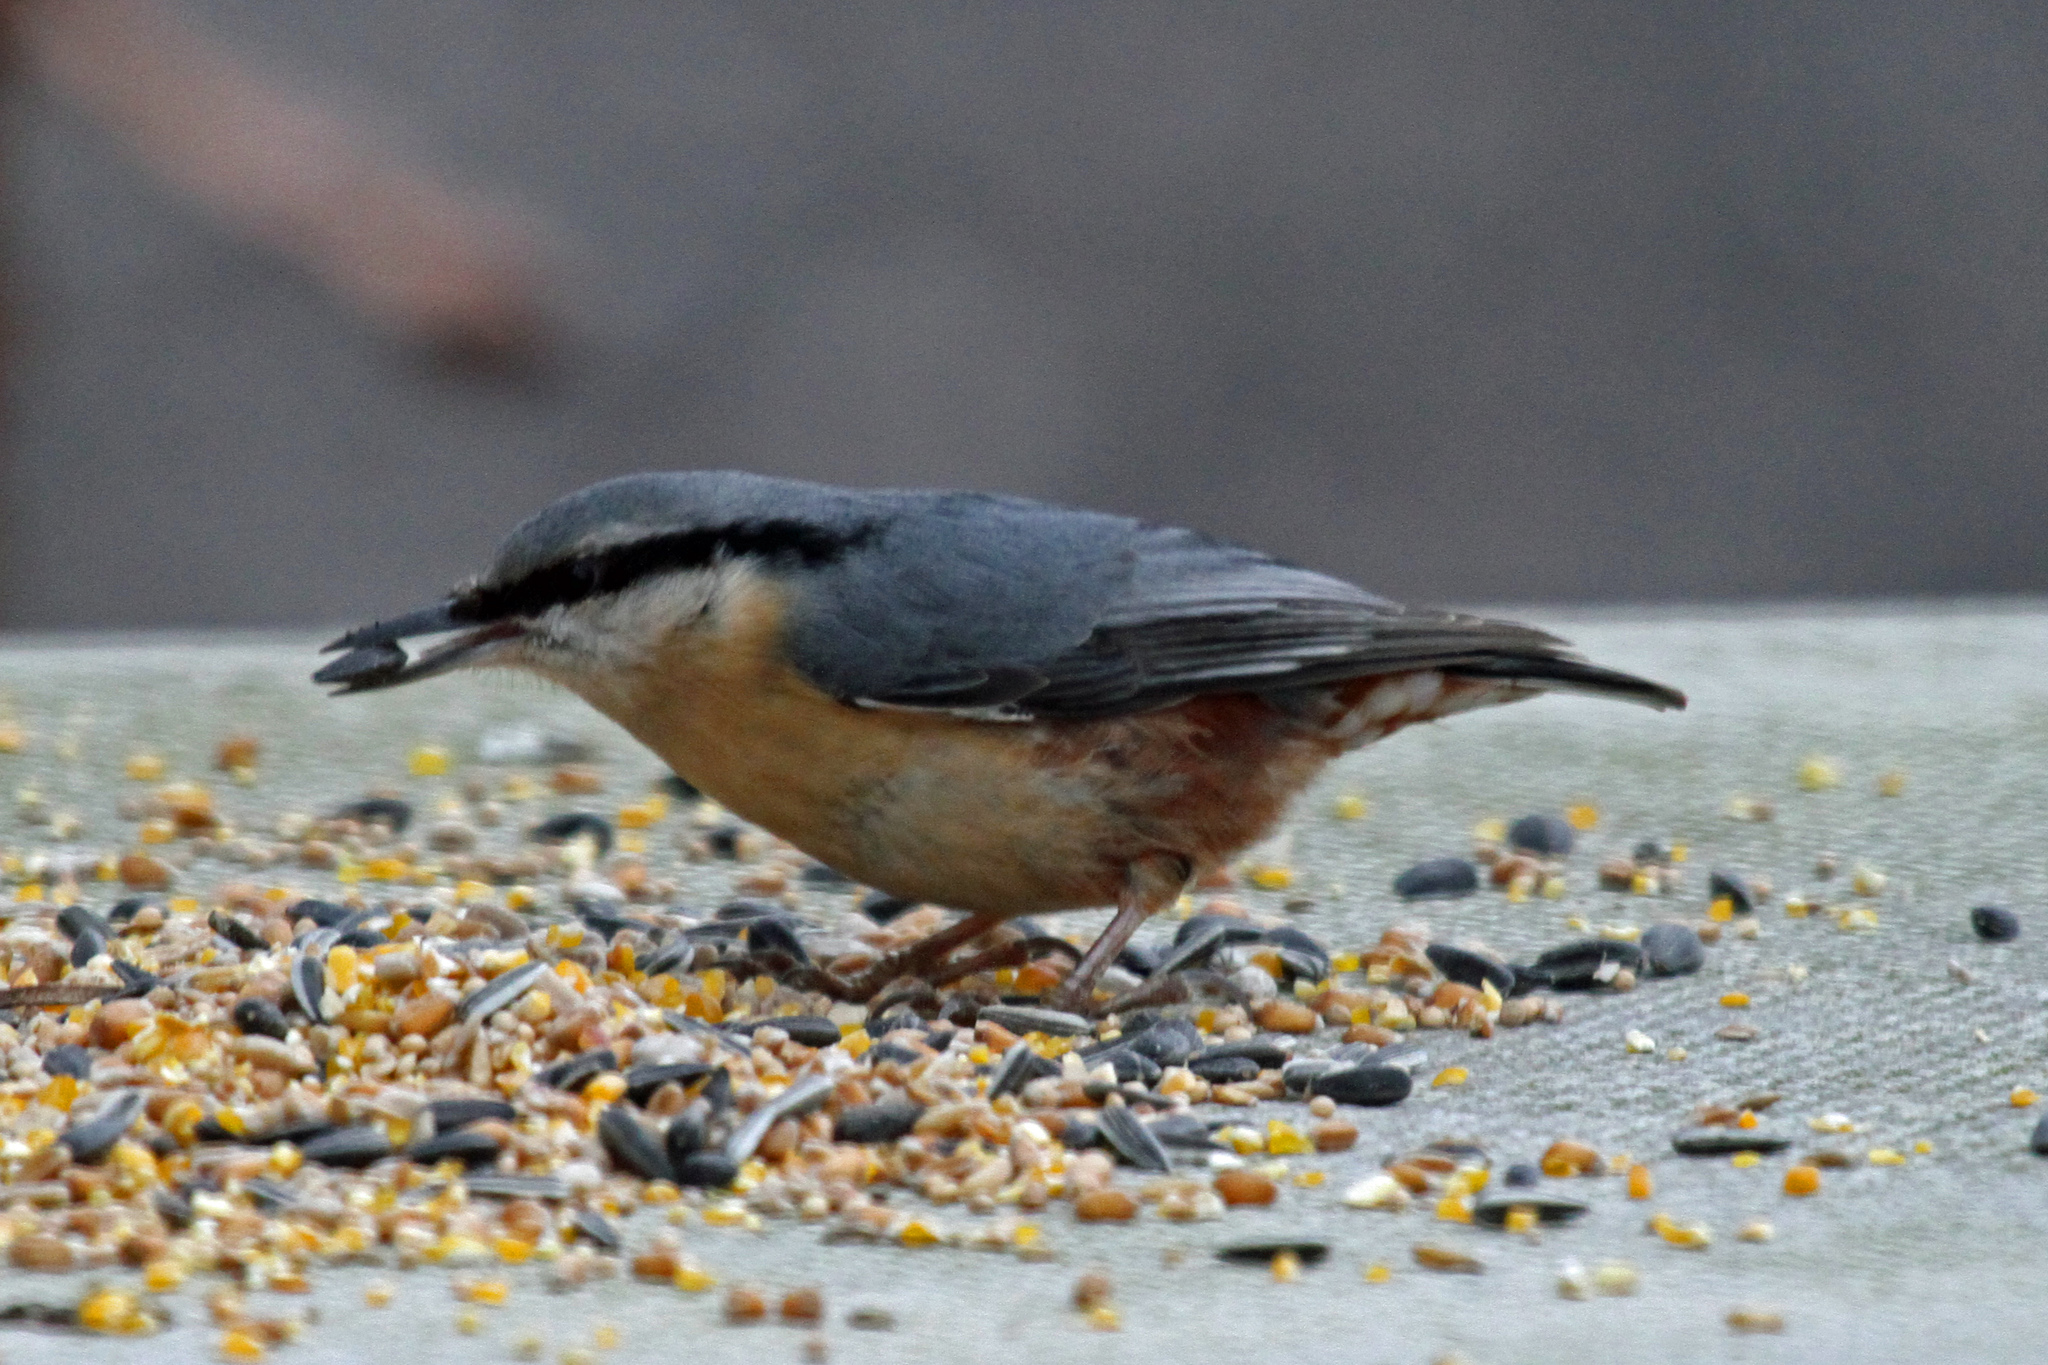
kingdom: Animalia
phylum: Chordata
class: Aves
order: Passeriformes
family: Sittidae
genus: Sitta
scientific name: Sitta europaea
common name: Eurasian nuthatch
